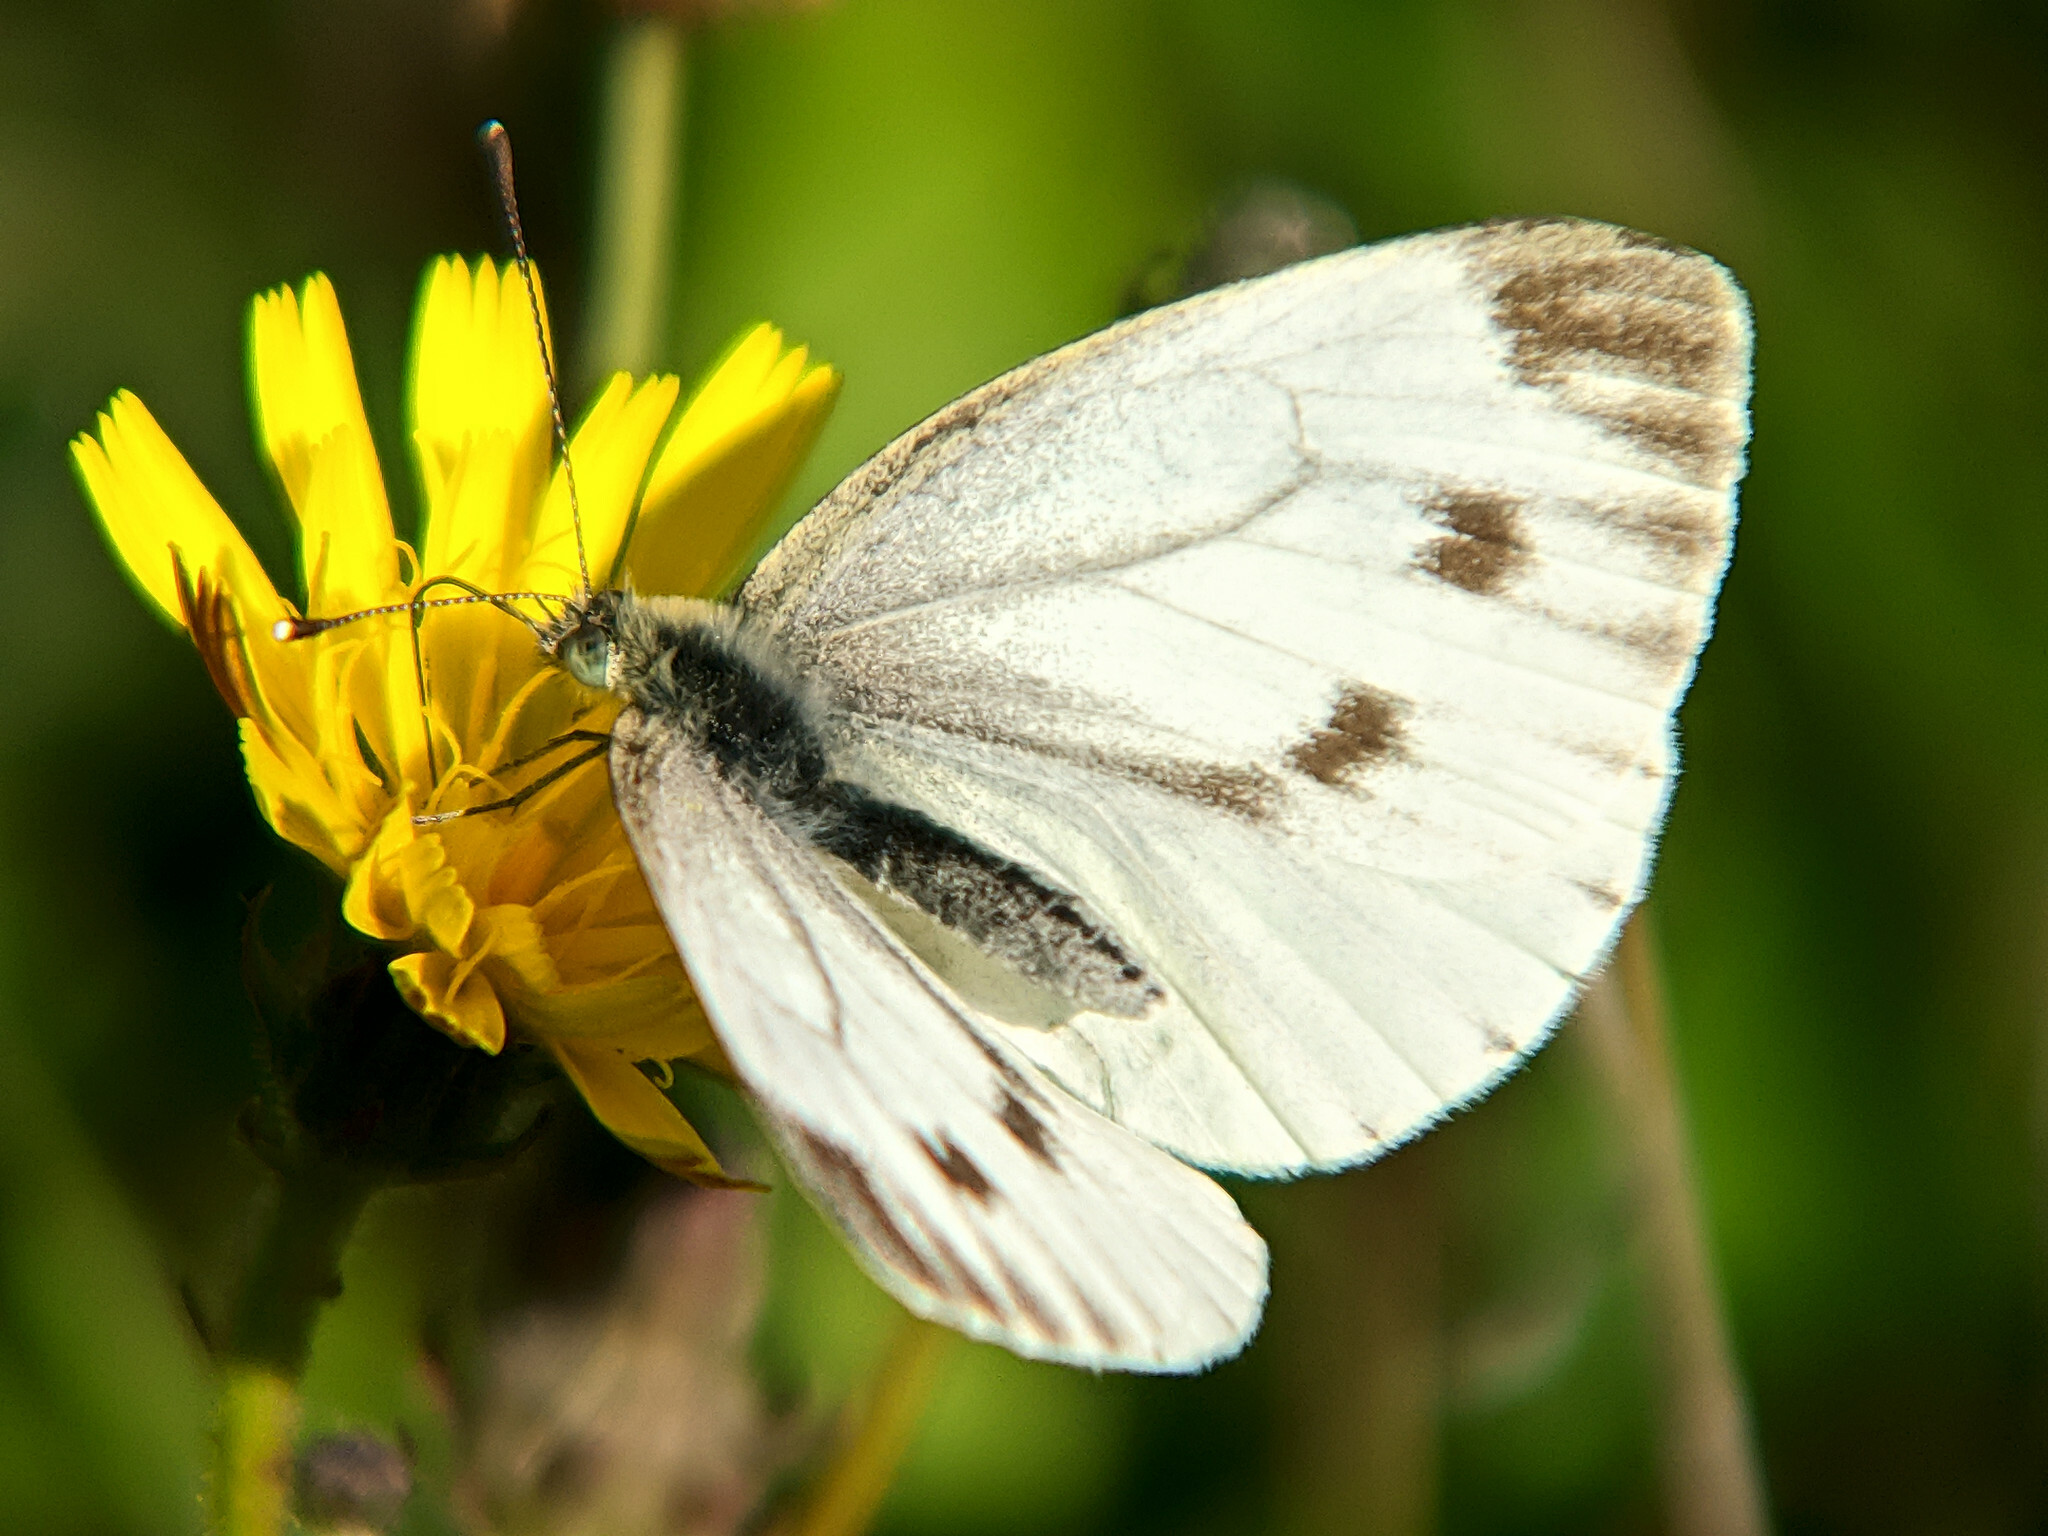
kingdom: Animalia
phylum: Arthropoda
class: Insecta
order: Lepidoptera
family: Pieridae
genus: Pieris
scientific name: Pieris napi
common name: Green-veined white
